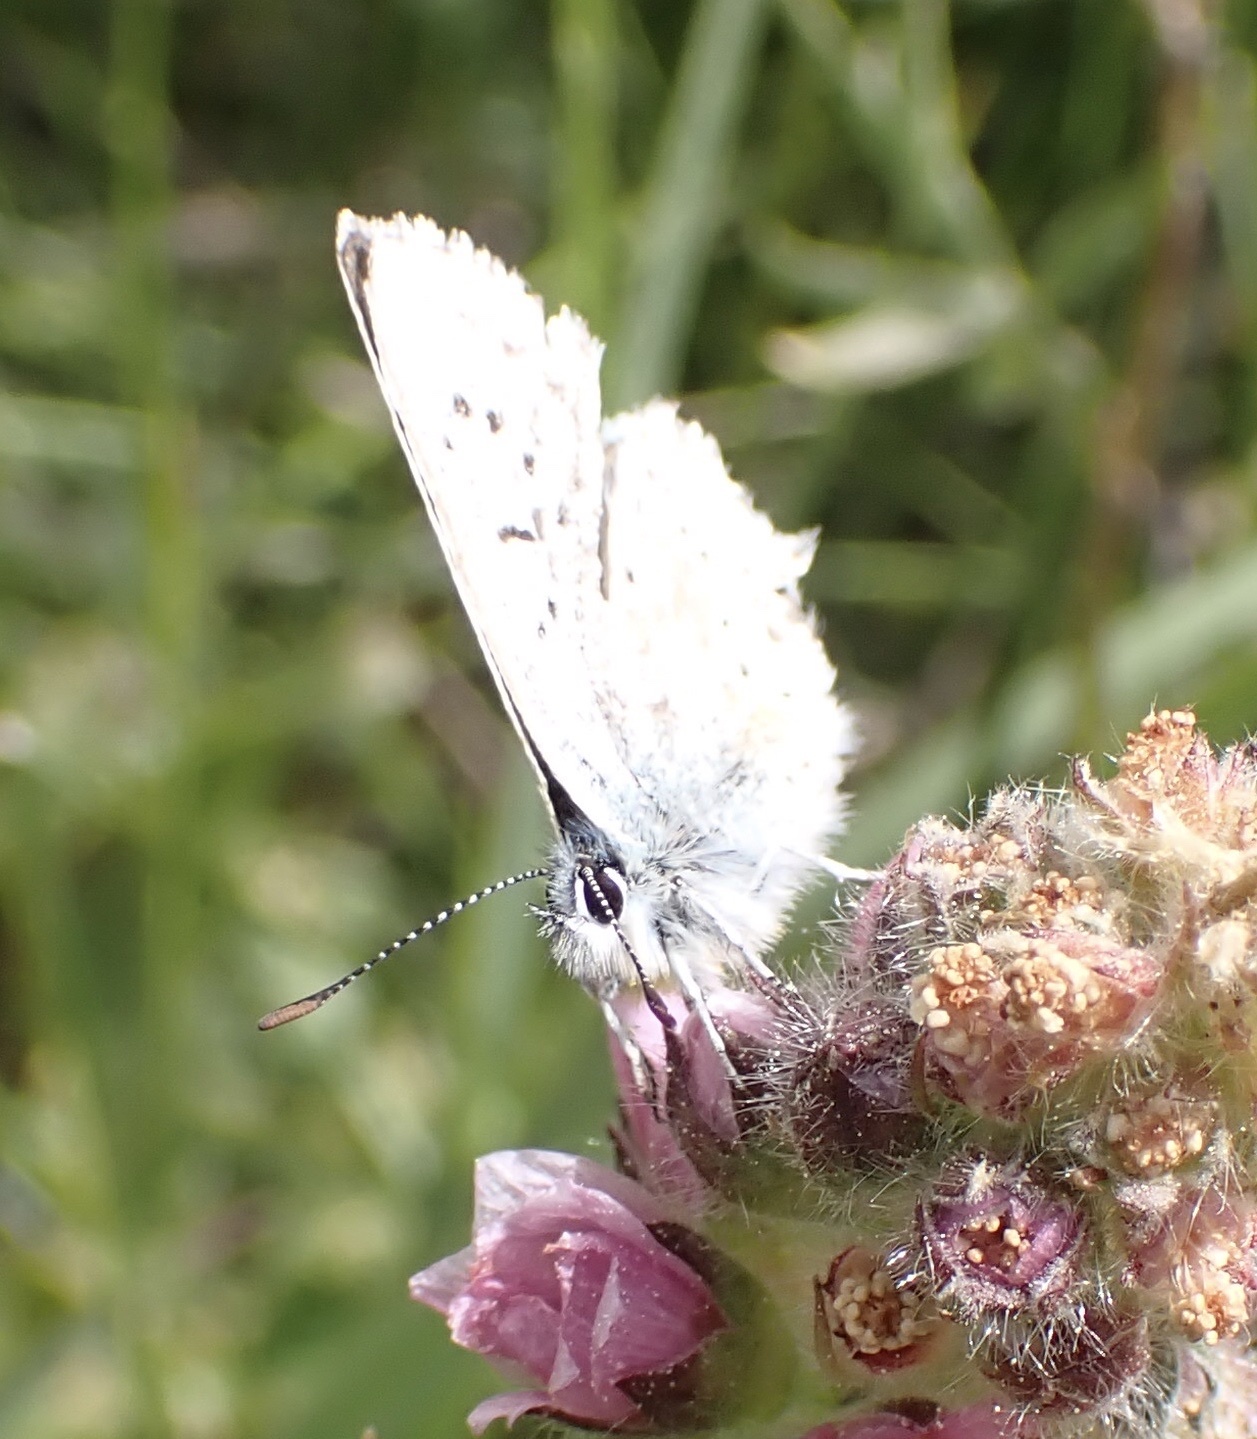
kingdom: Animalia
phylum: Arthropoda
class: Insecta
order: Lepidoptera
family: Lycaenidae
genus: Agriades
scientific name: Agriades podarce
